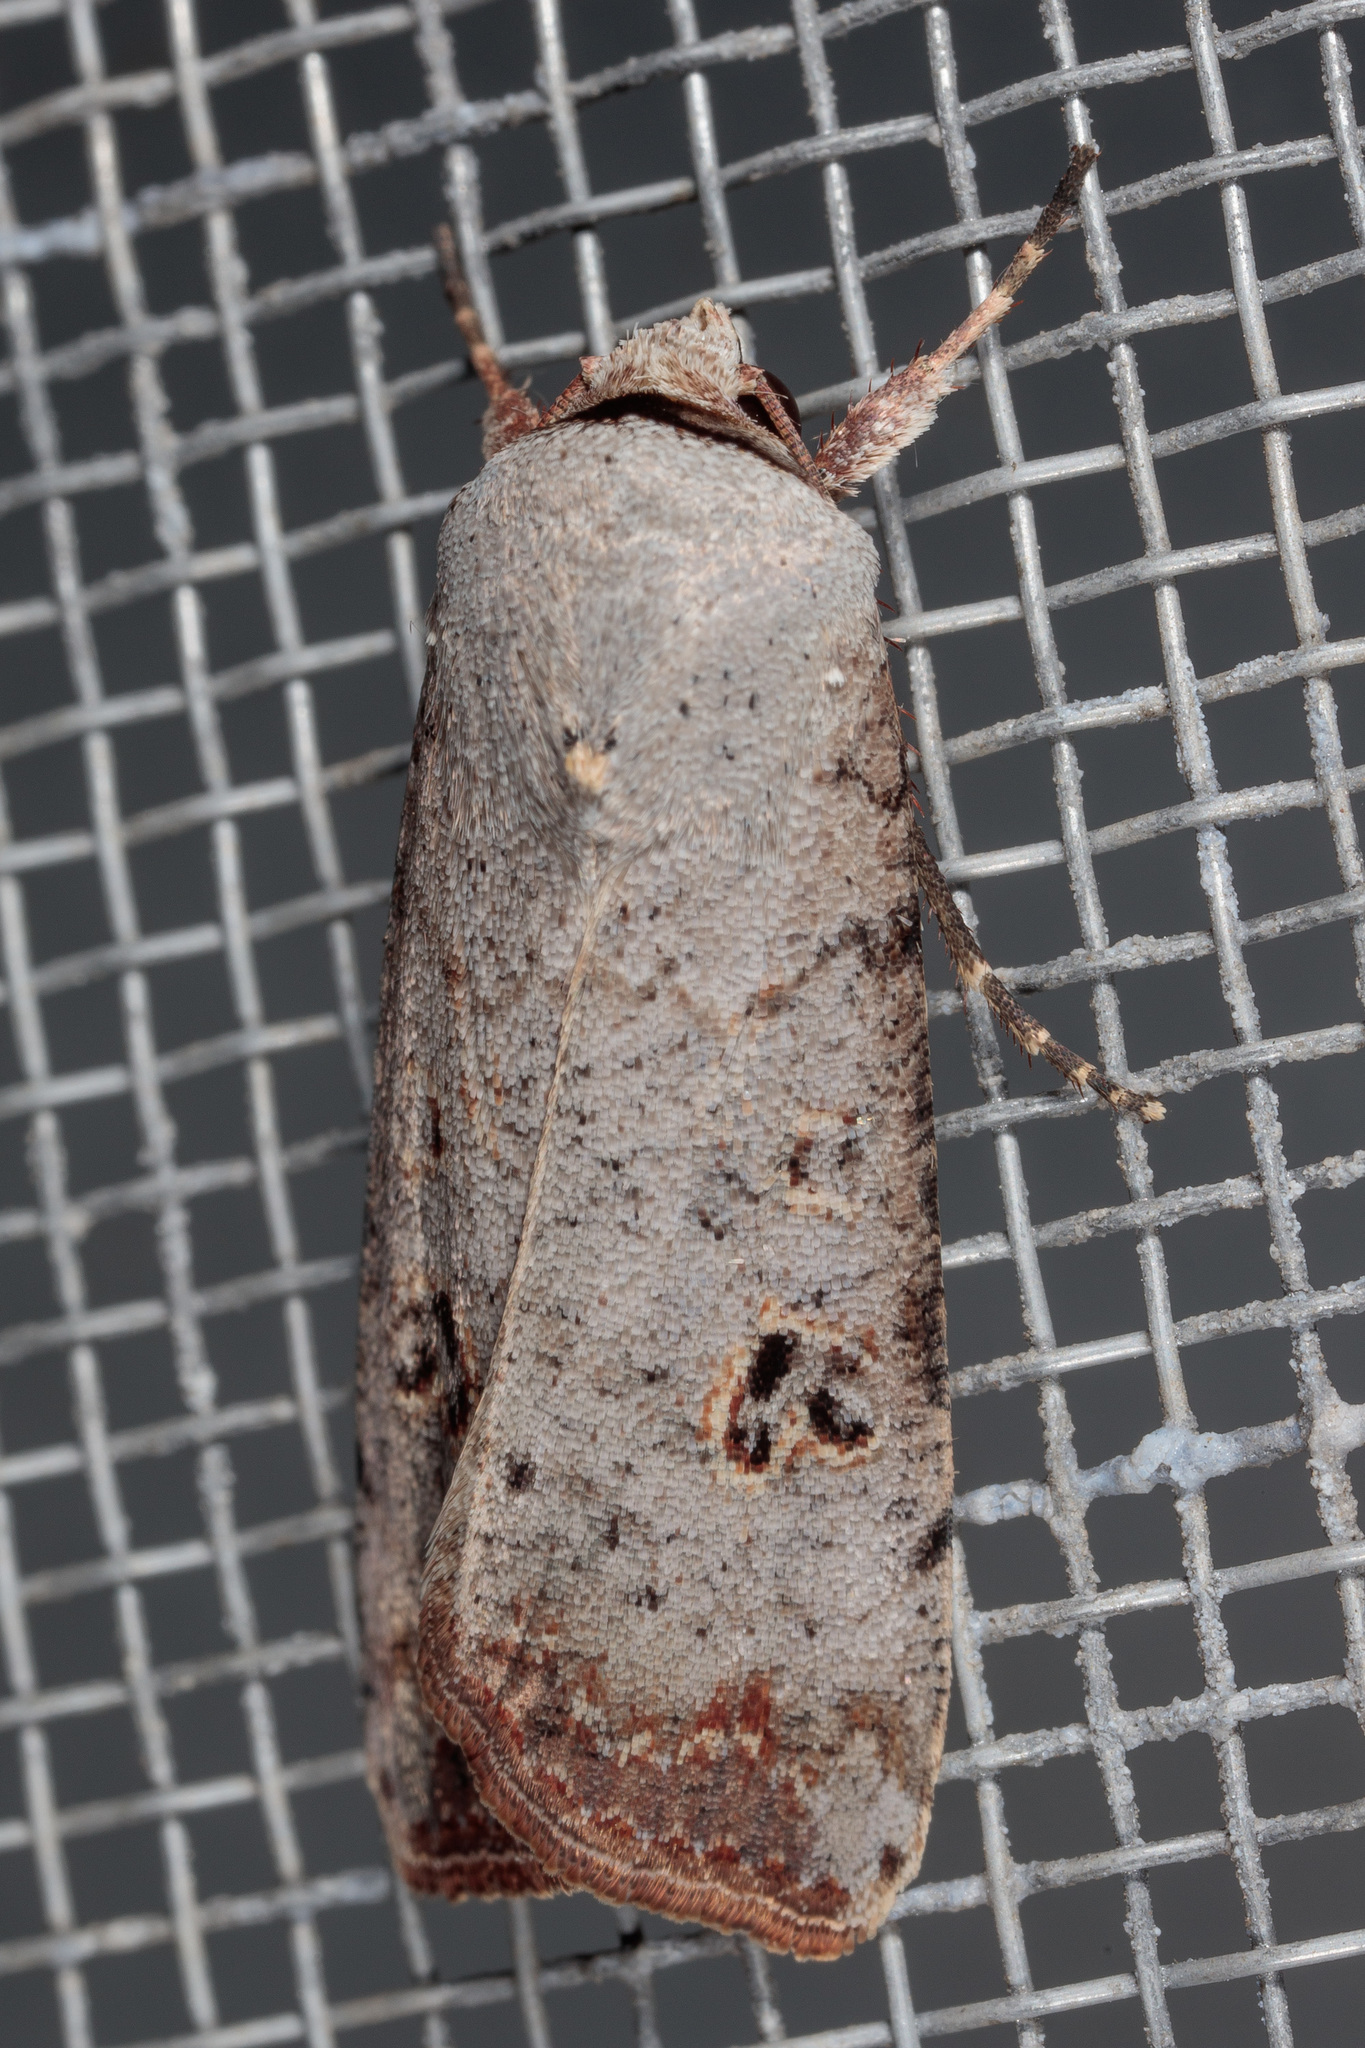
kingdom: Animalia
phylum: Arthropoda
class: Insecta
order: Lepidoptera
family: Noctuidae
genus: Anicla
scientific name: Anicla infecta
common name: Green cutworm
